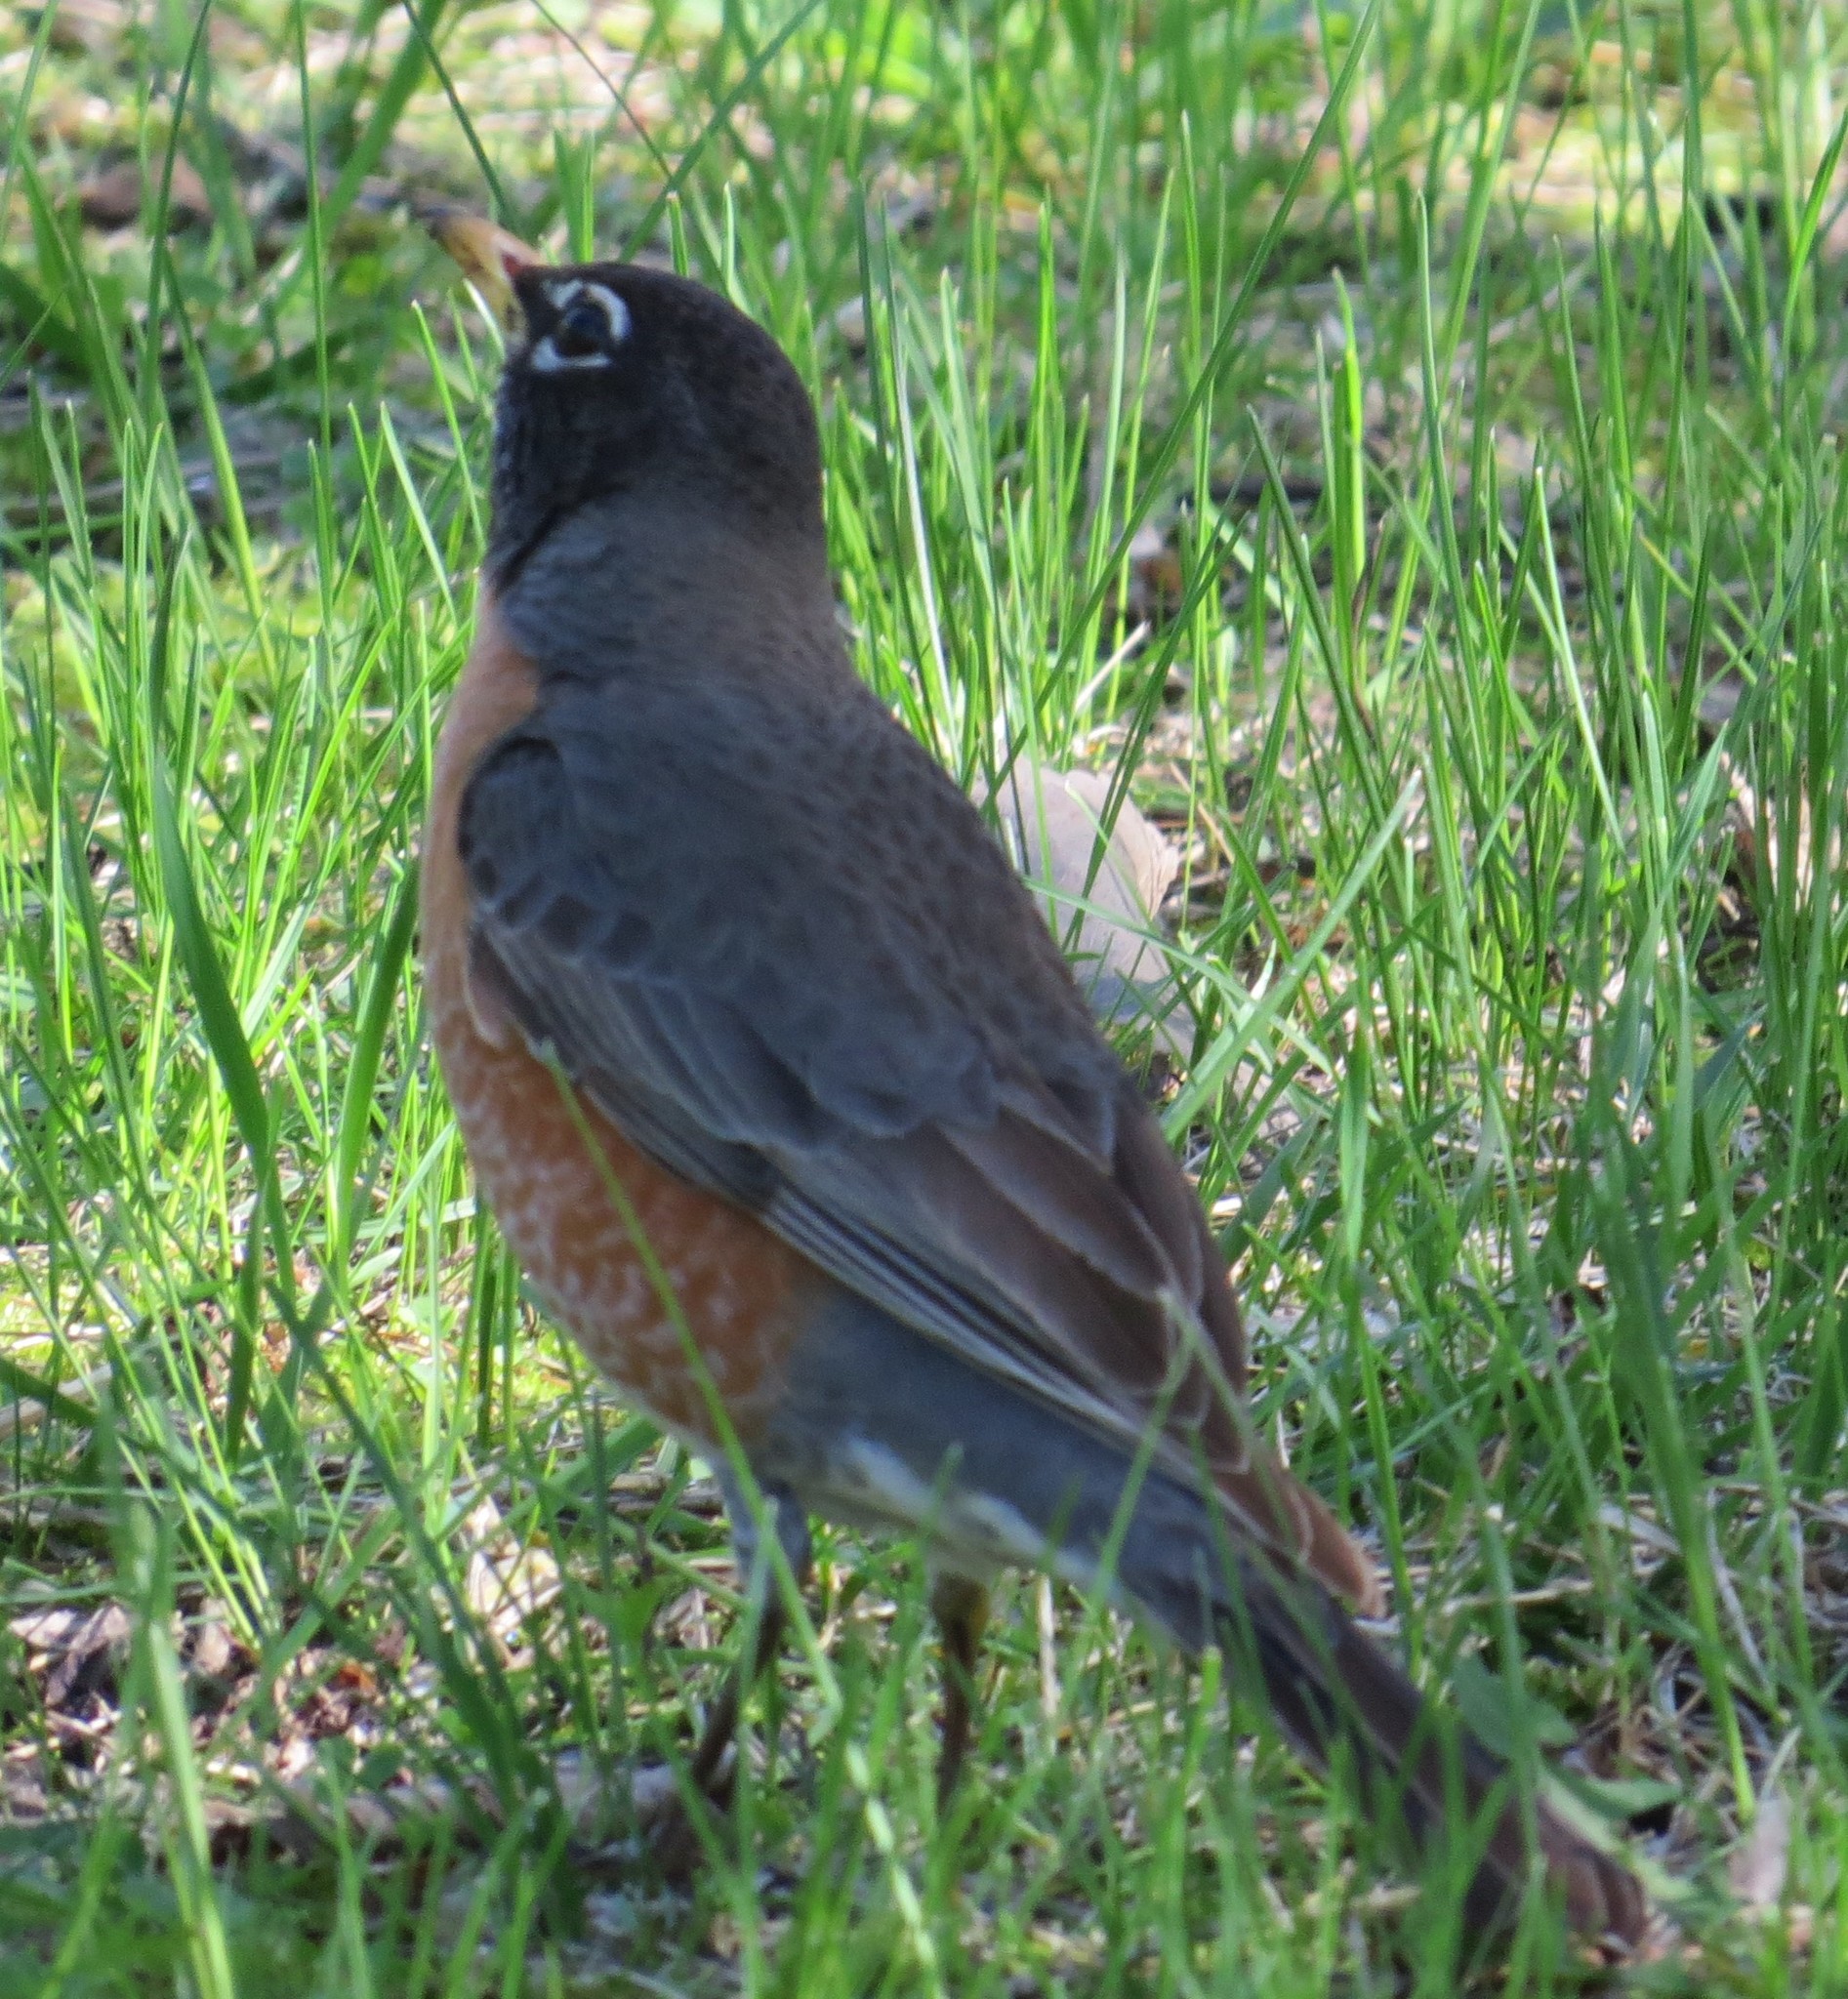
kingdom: Animalia
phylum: Chordata
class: Aves
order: Passeriformes
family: Turdidae
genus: Turdus
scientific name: Turdus migratorius
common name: American robin
